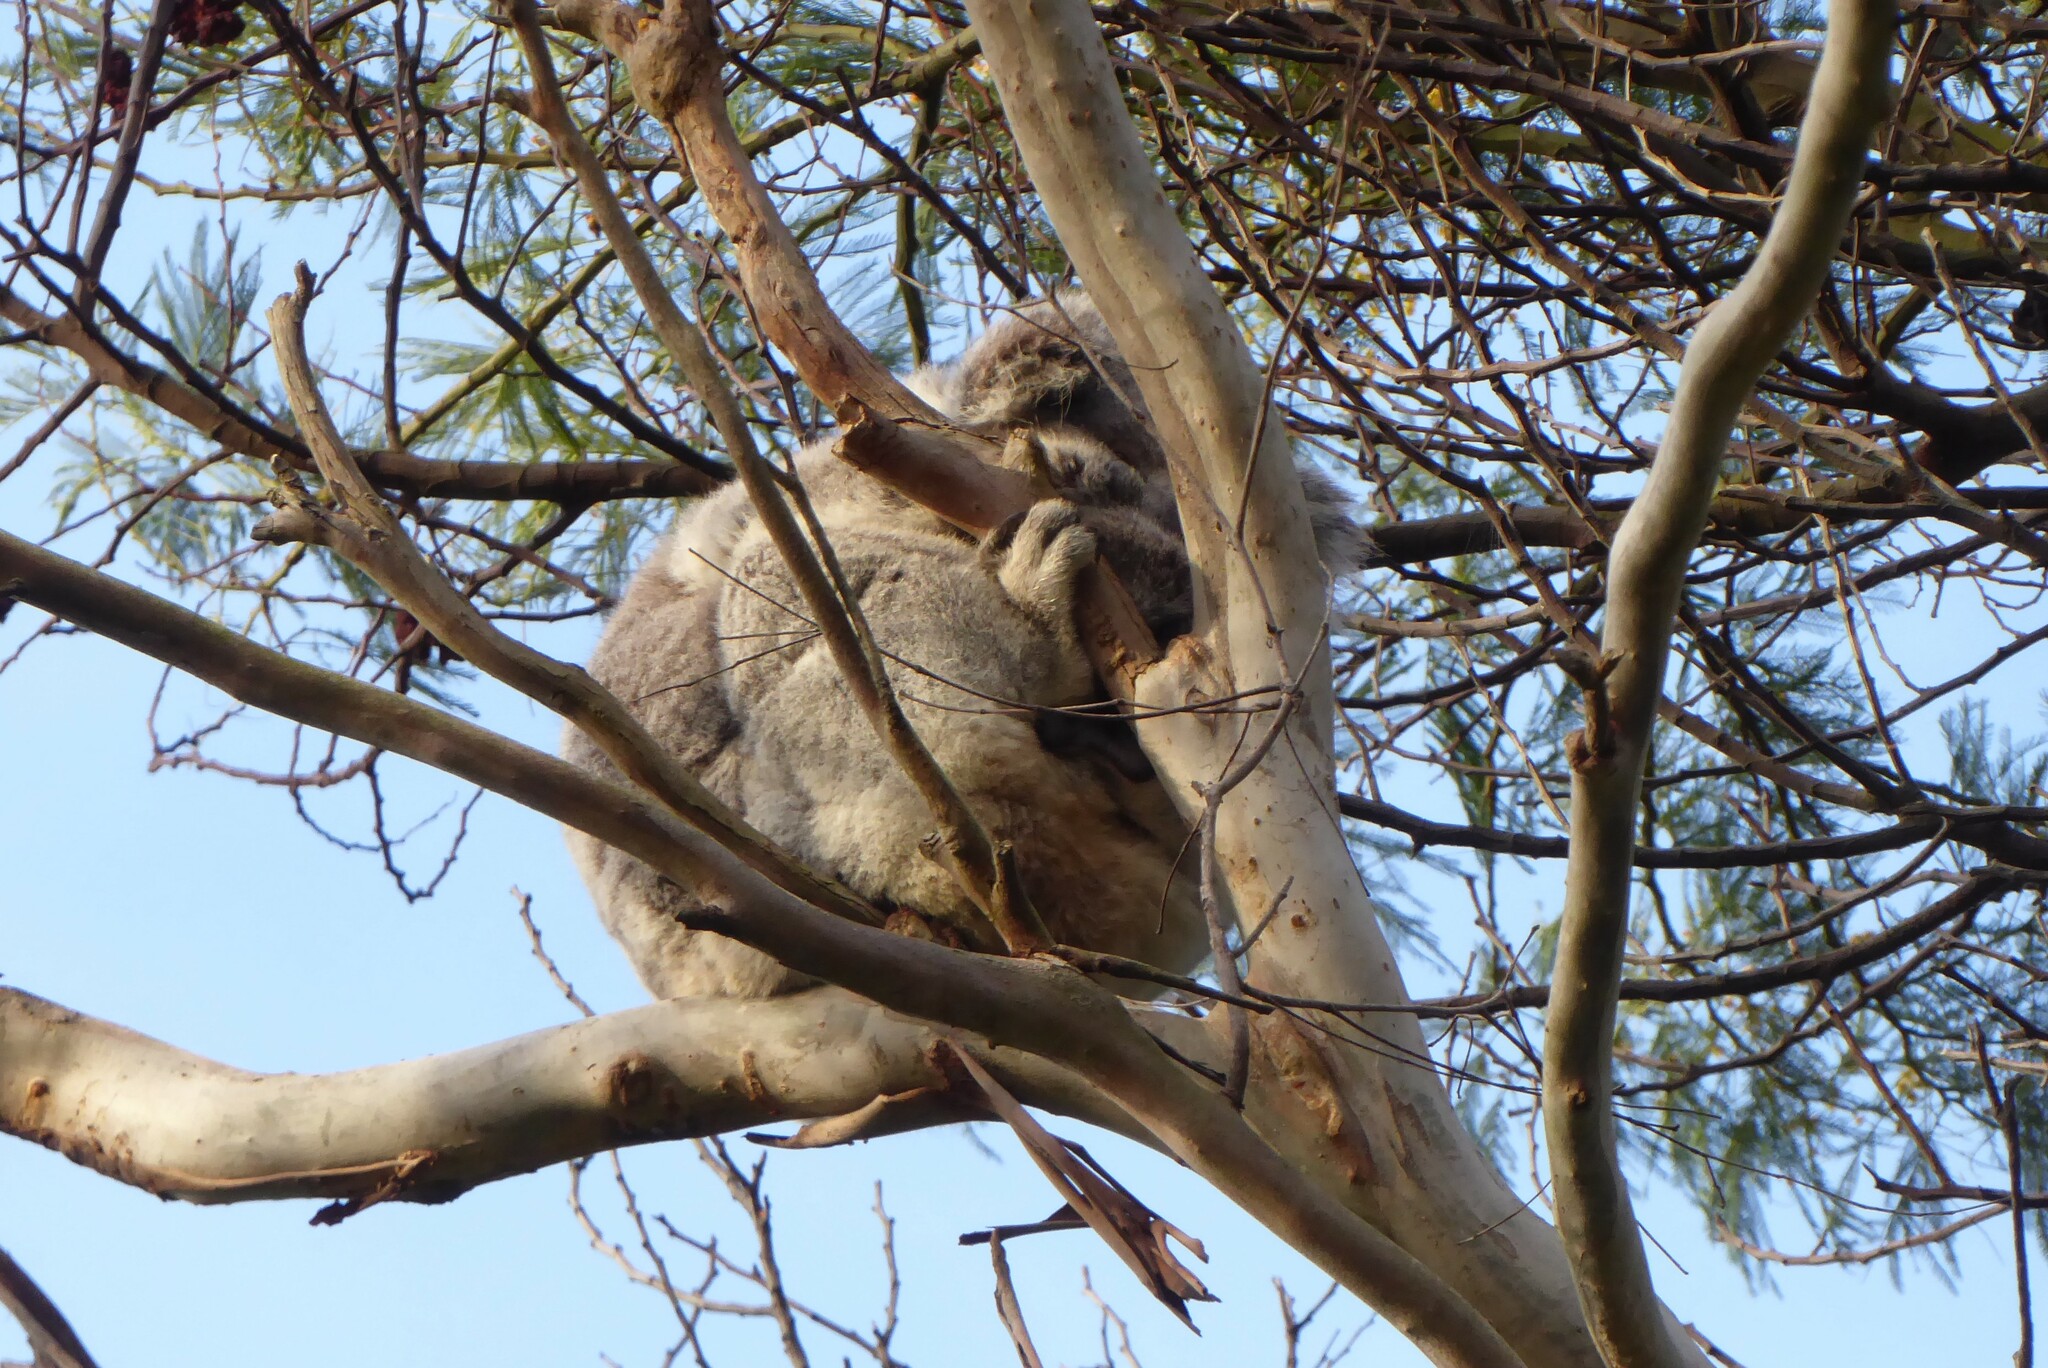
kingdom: Animalia
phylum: Chordata
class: Mammalia
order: Diprotodontia
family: Phascolarctidae
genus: Phascolarctos
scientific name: Phascolarctos cinereus
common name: Koala
